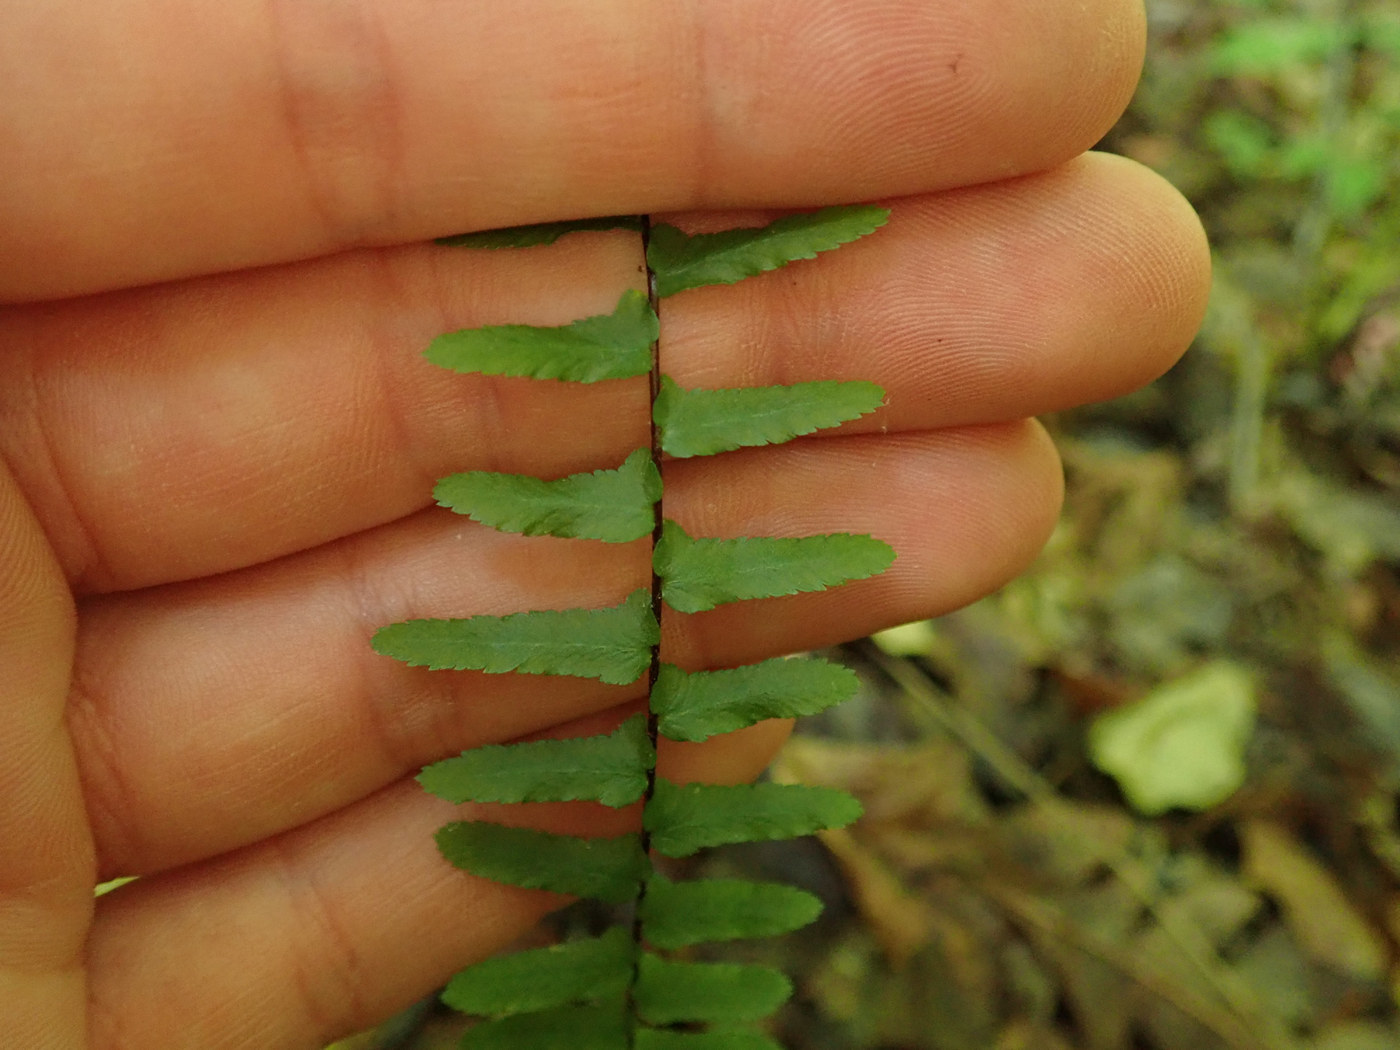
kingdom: Plantae
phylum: Tracheophyta
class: Polypodiopsida
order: Polypodiales
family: Aspleniaceae
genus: Asplenium
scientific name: Asplenium platyneuron
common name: Ebony spleenwort
